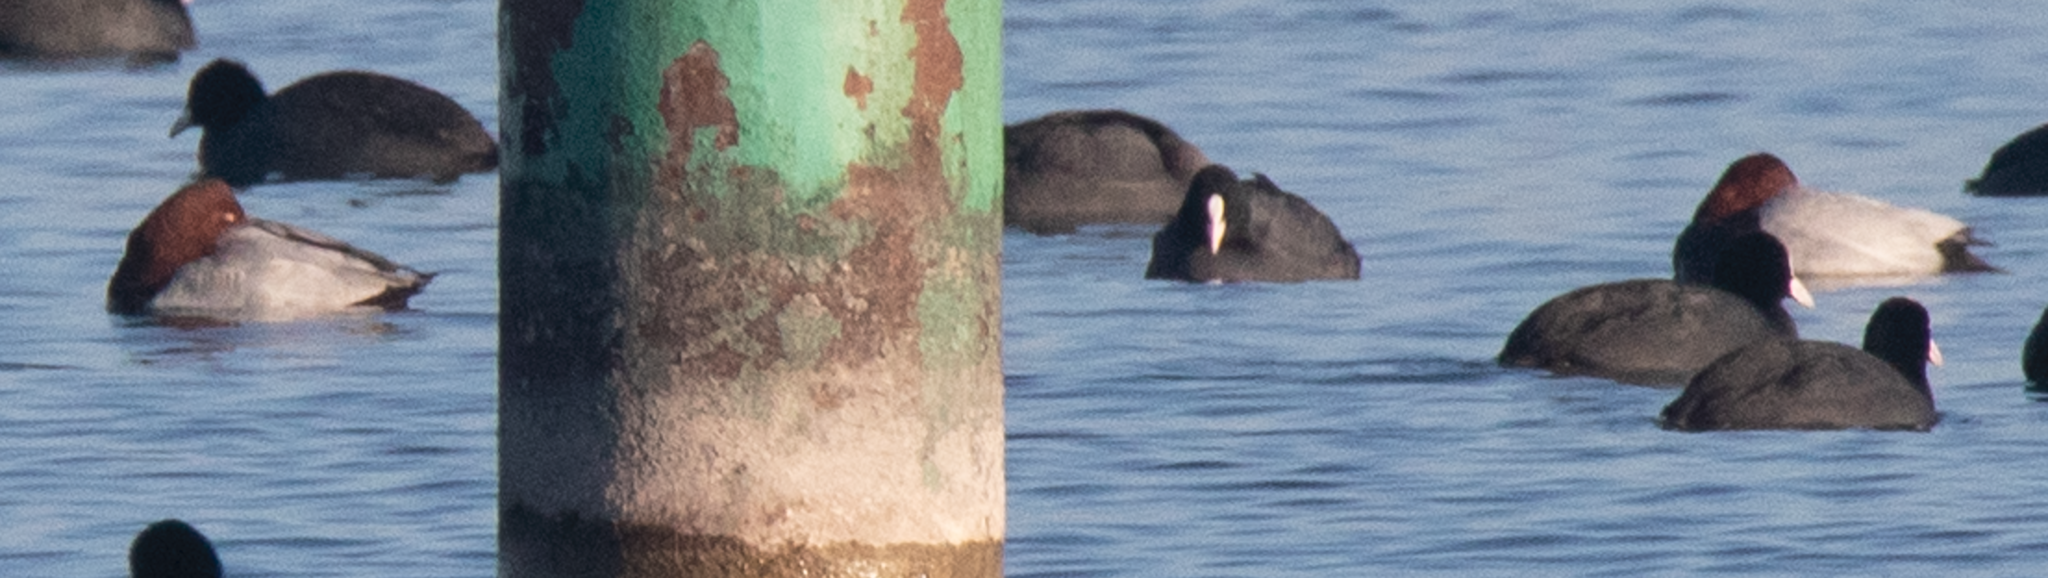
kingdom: Animalia
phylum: Chordata
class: Aves
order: Anseriformes
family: Anatidae
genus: Aythya
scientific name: Aythya ferina
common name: Common pochard
